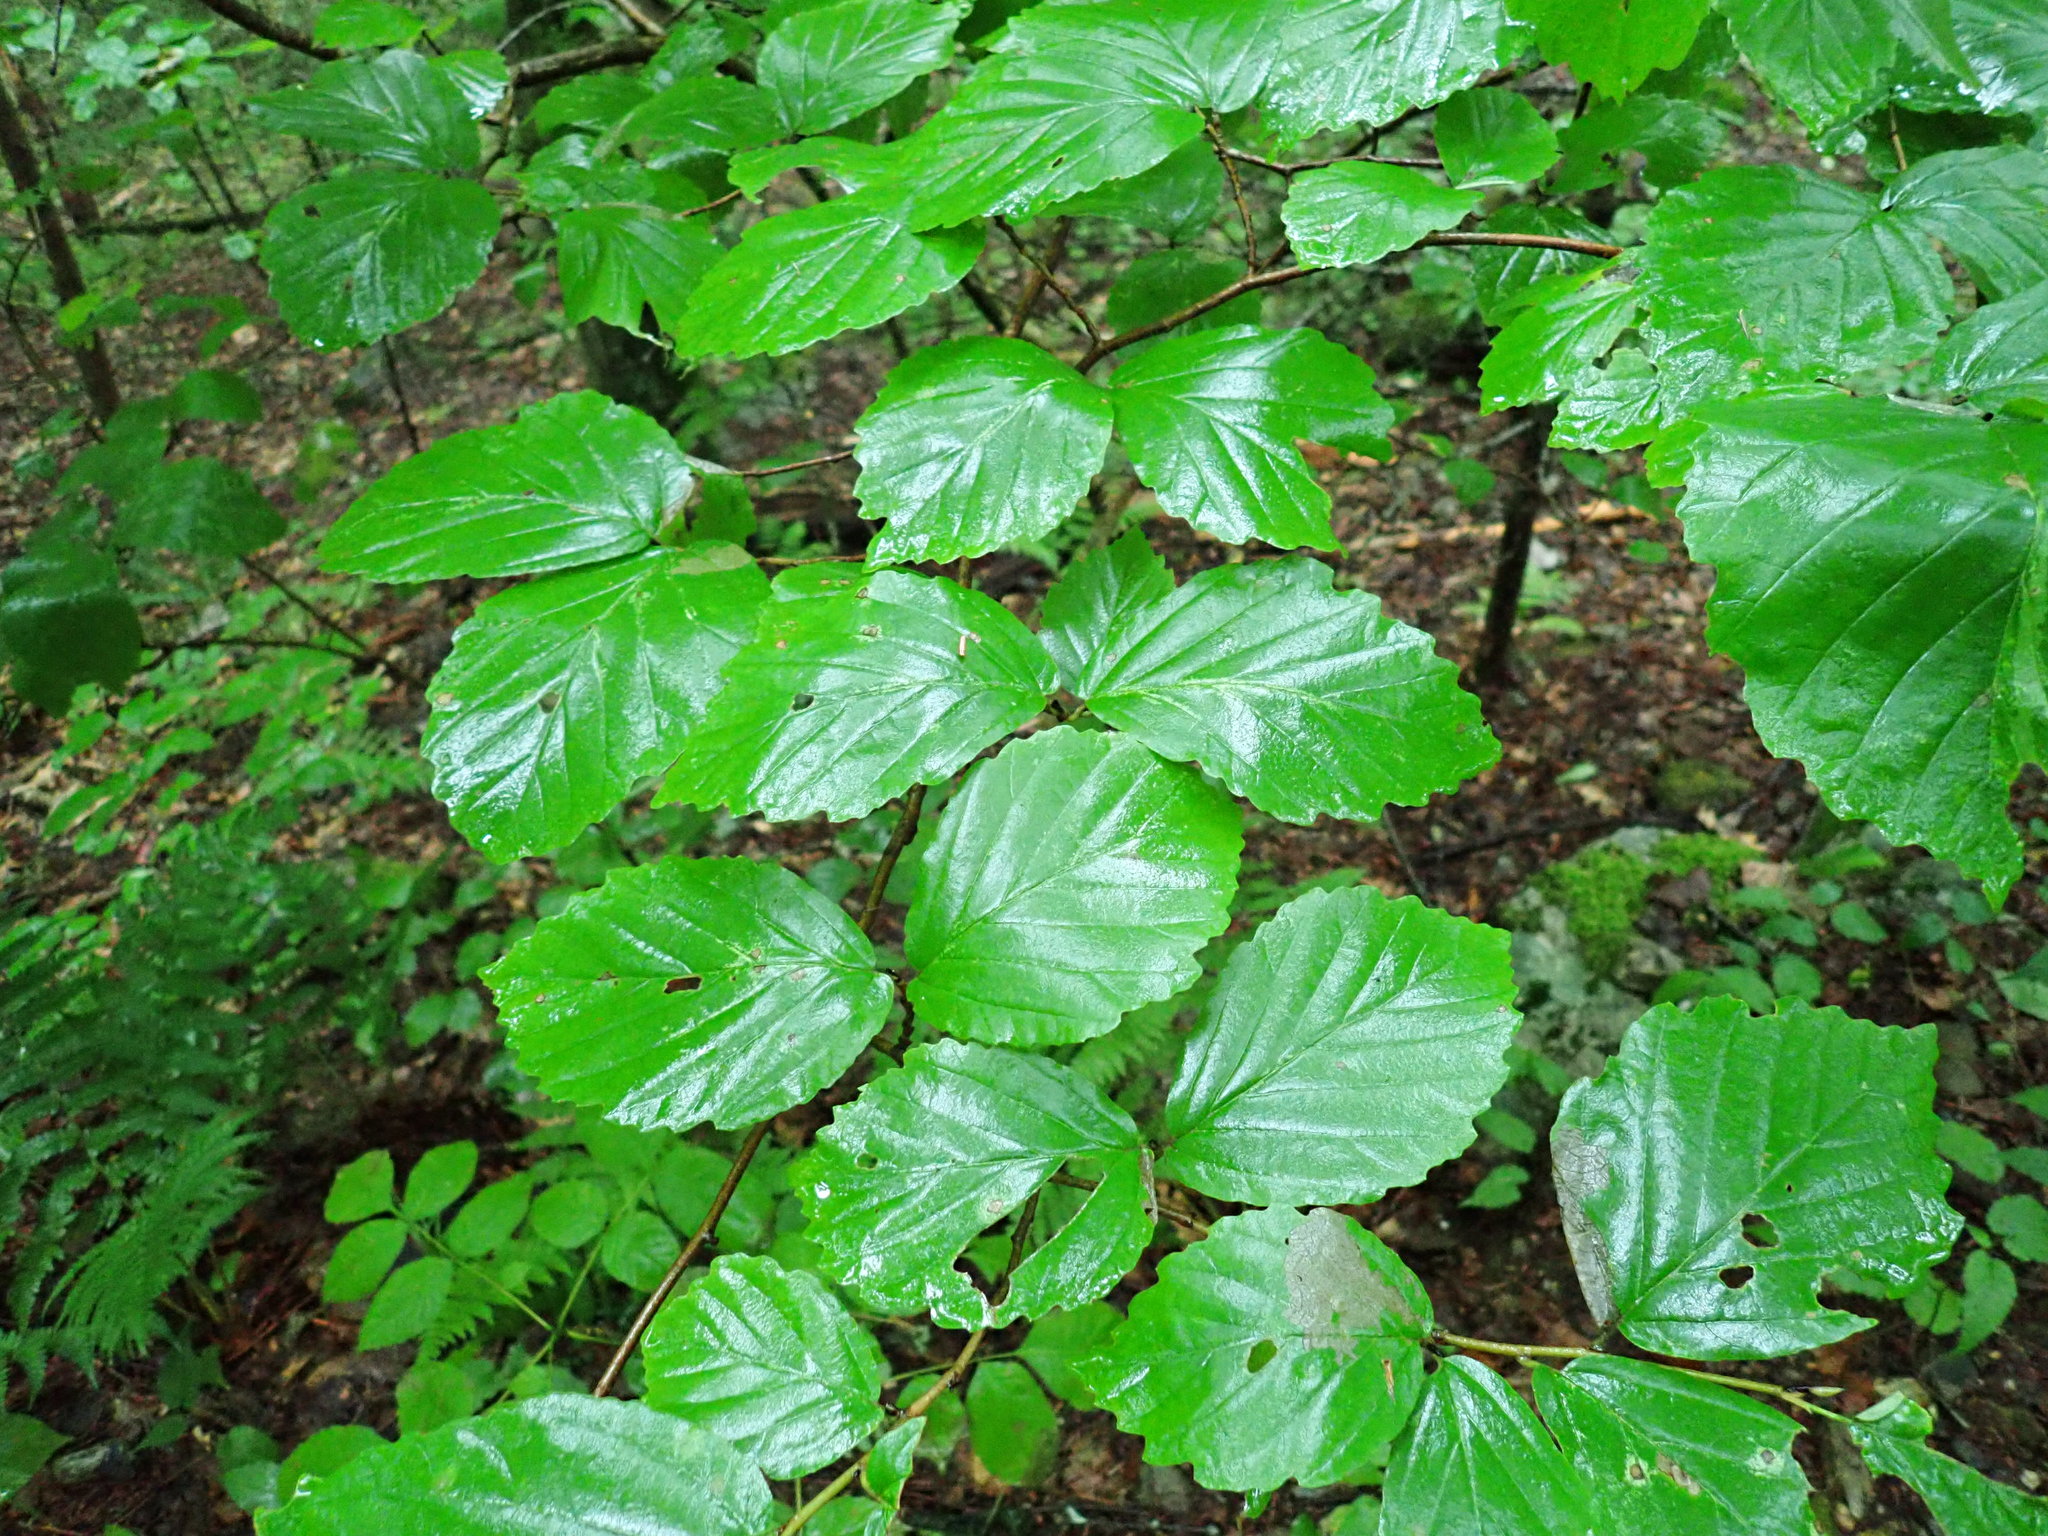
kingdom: Plantae
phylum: Tracheophyta
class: Magnoliopsida
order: Saxifragales
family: Hamamelidaceae
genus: Hamamelis
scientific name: Hamamelis virginiana
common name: Witch-hazel
